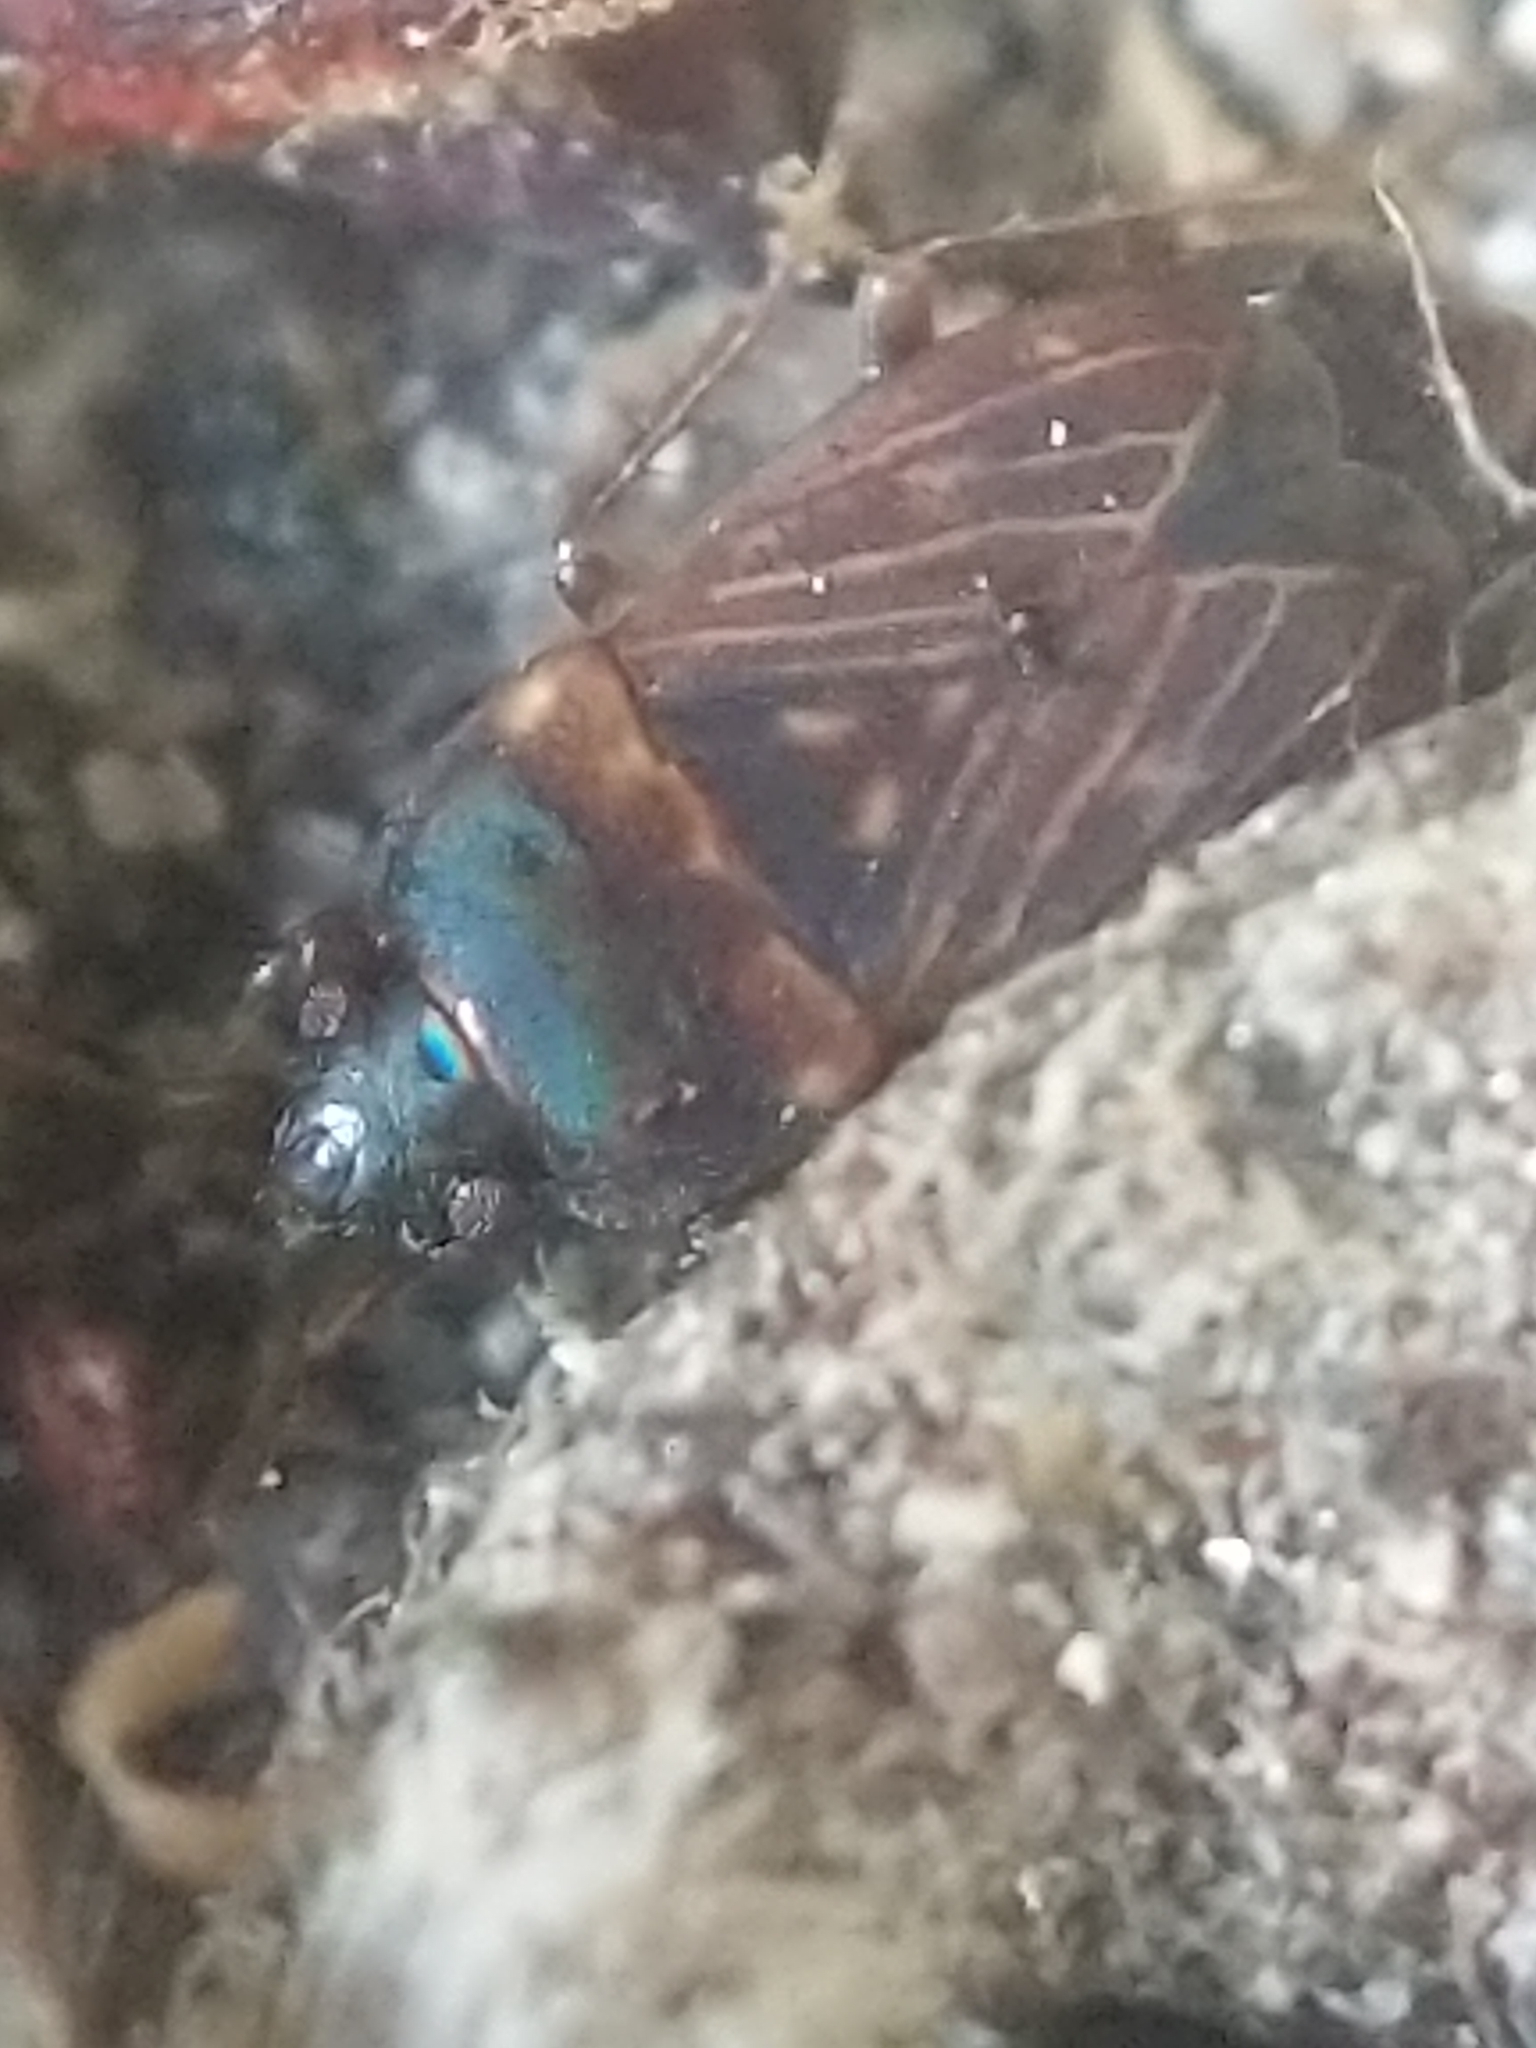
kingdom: Animalia
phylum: Arthropoda
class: Insecta
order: Hemiptera
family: Rhyparochromidae
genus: Cryphula
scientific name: Cryphula trimaculata
